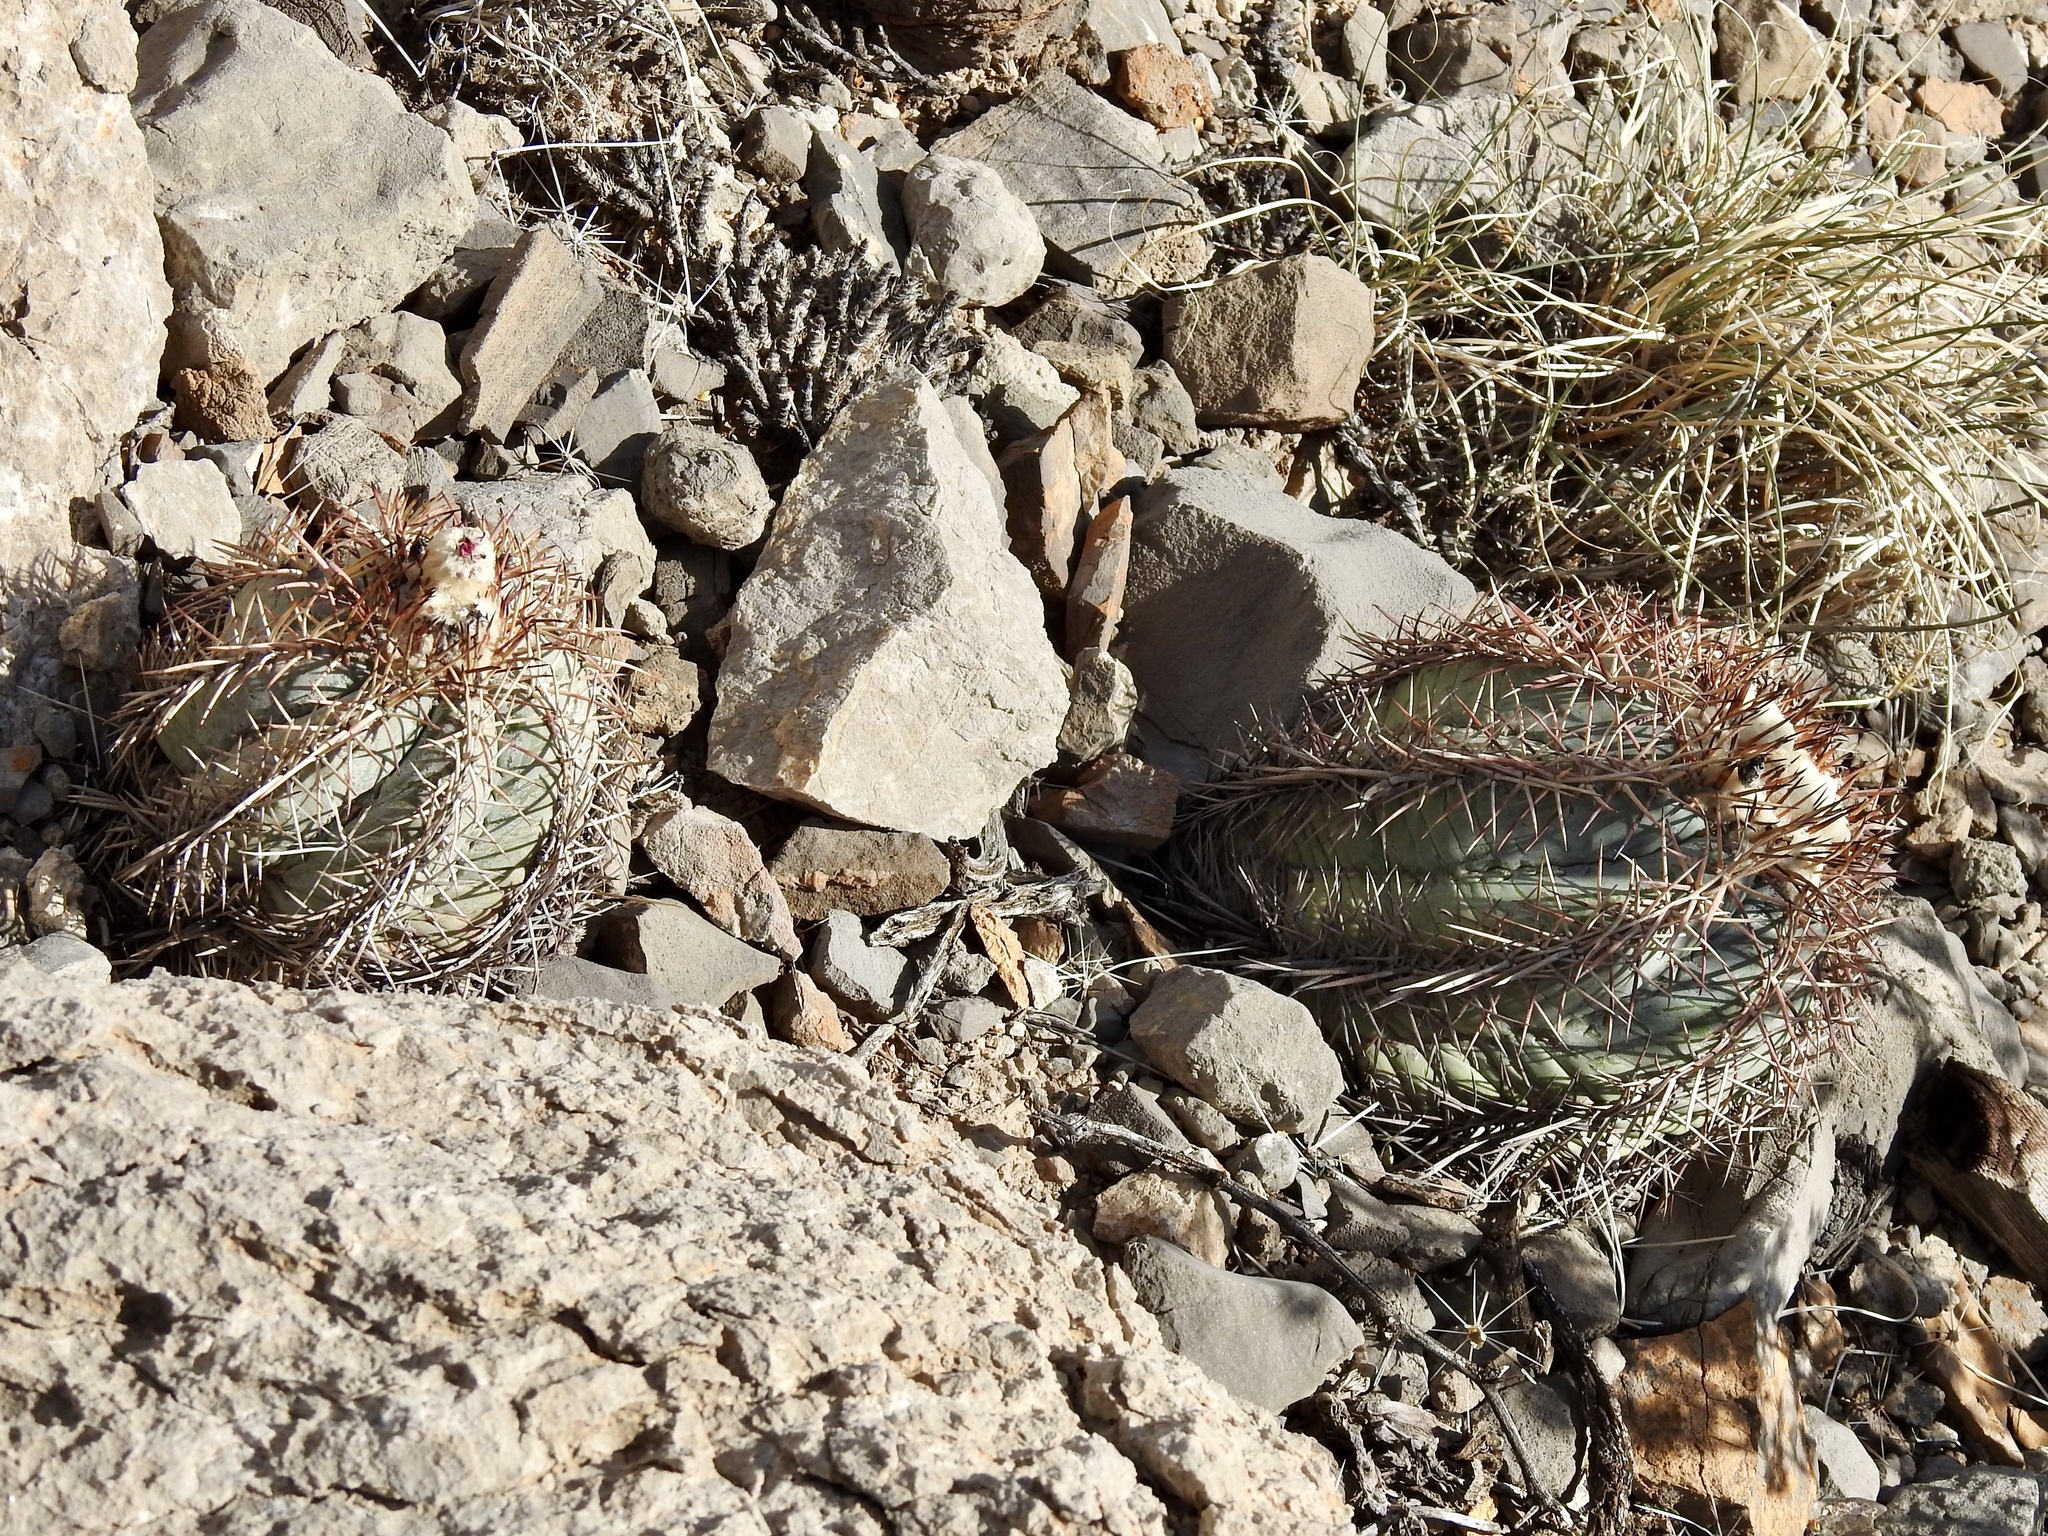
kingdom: Plantae
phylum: Tracheophyta
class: Magnoliopsida
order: Caryophyllales
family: Cactaceae
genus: Echinocactus
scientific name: Echinocactus horizonthalonius
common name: Devilshead
